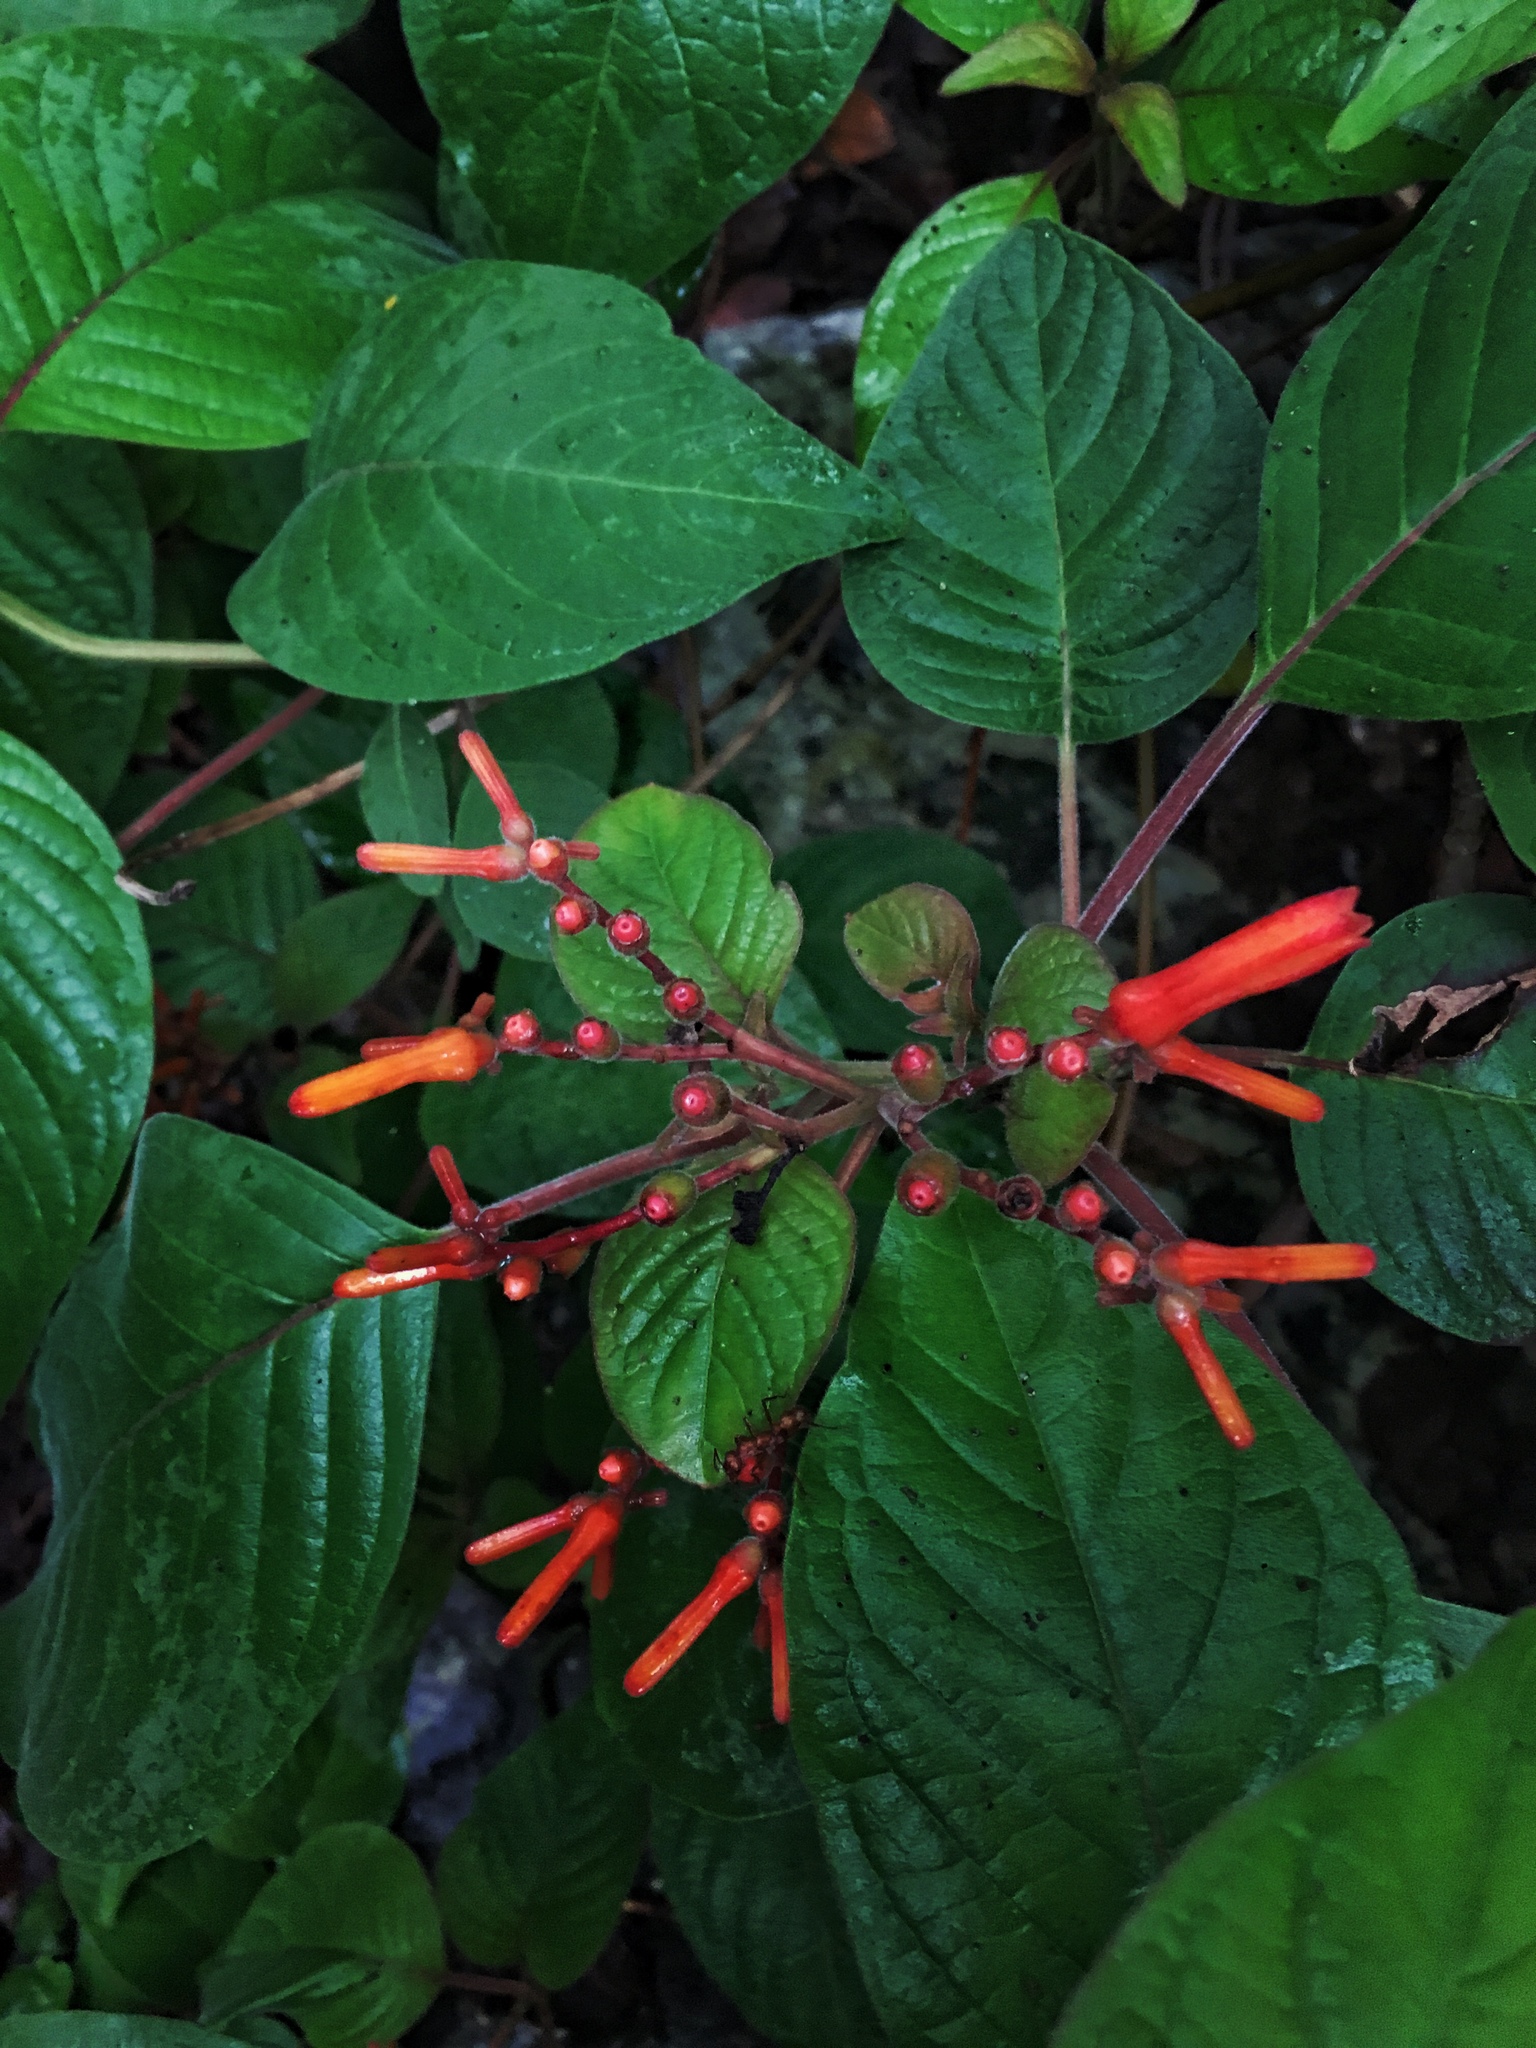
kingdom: Plantae
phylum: Tracheophyta
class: Magnoliopsida
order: Gentianales
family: Rubiaceae
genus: Hamelia
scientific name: Hamelia patens
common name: Redhead
